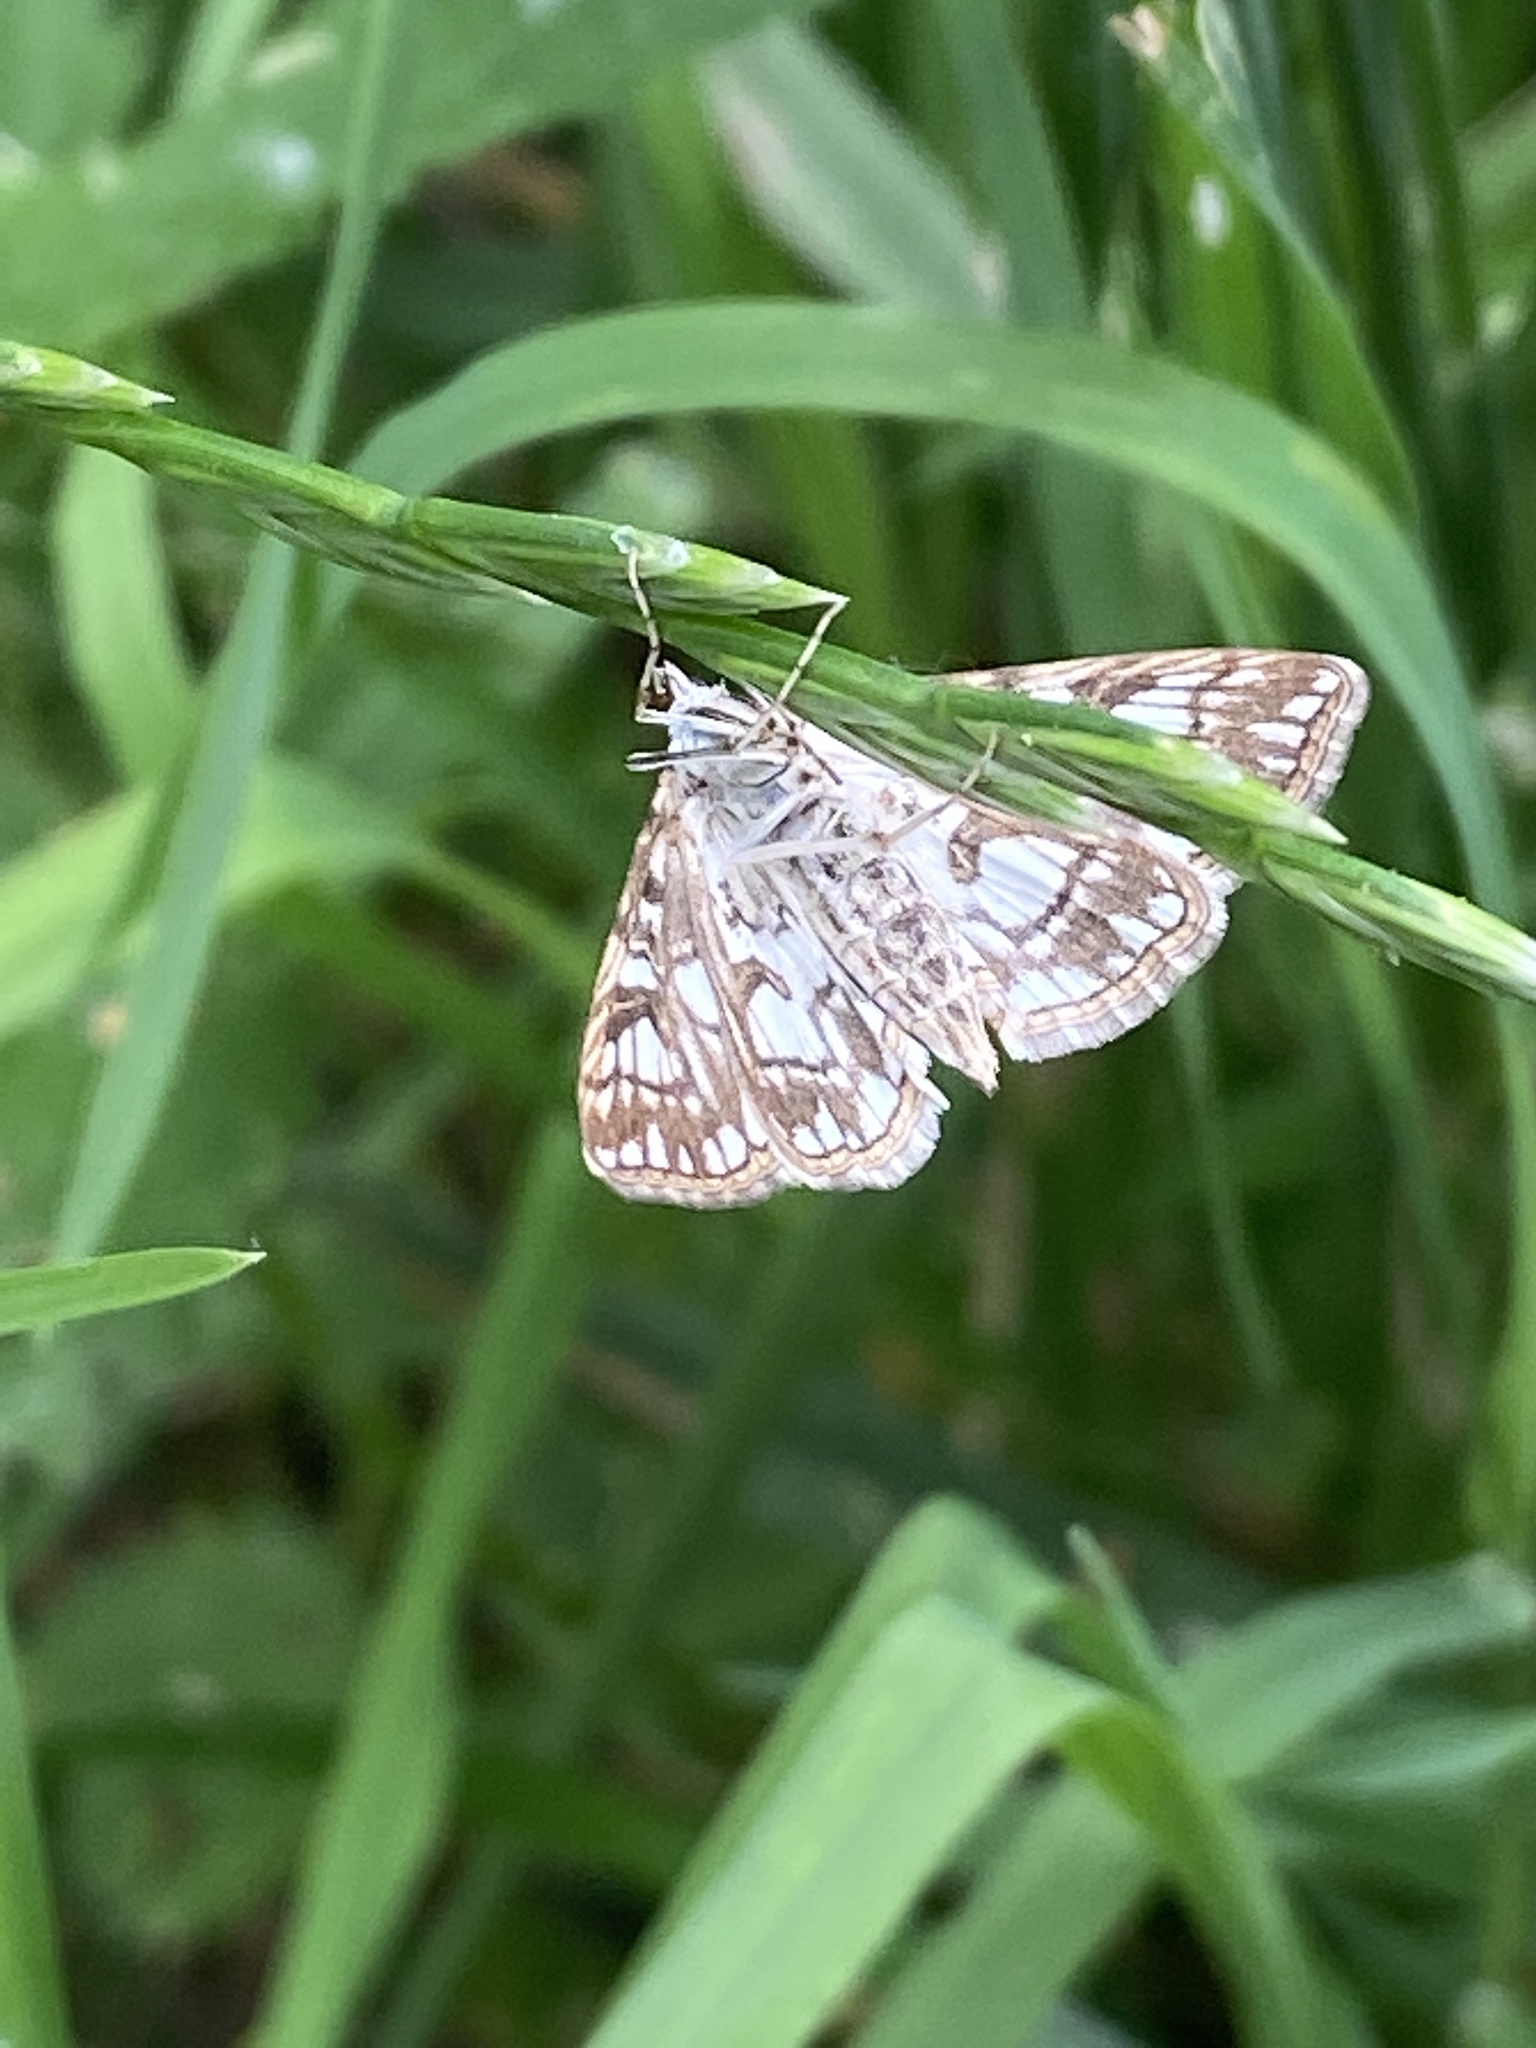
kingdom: Animalia
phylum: Arthropoda
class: Insecta
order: Lepidoptera
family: Crambidae
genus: Elophila
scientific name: Elophila nymphaeata
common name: Brown china-mark
